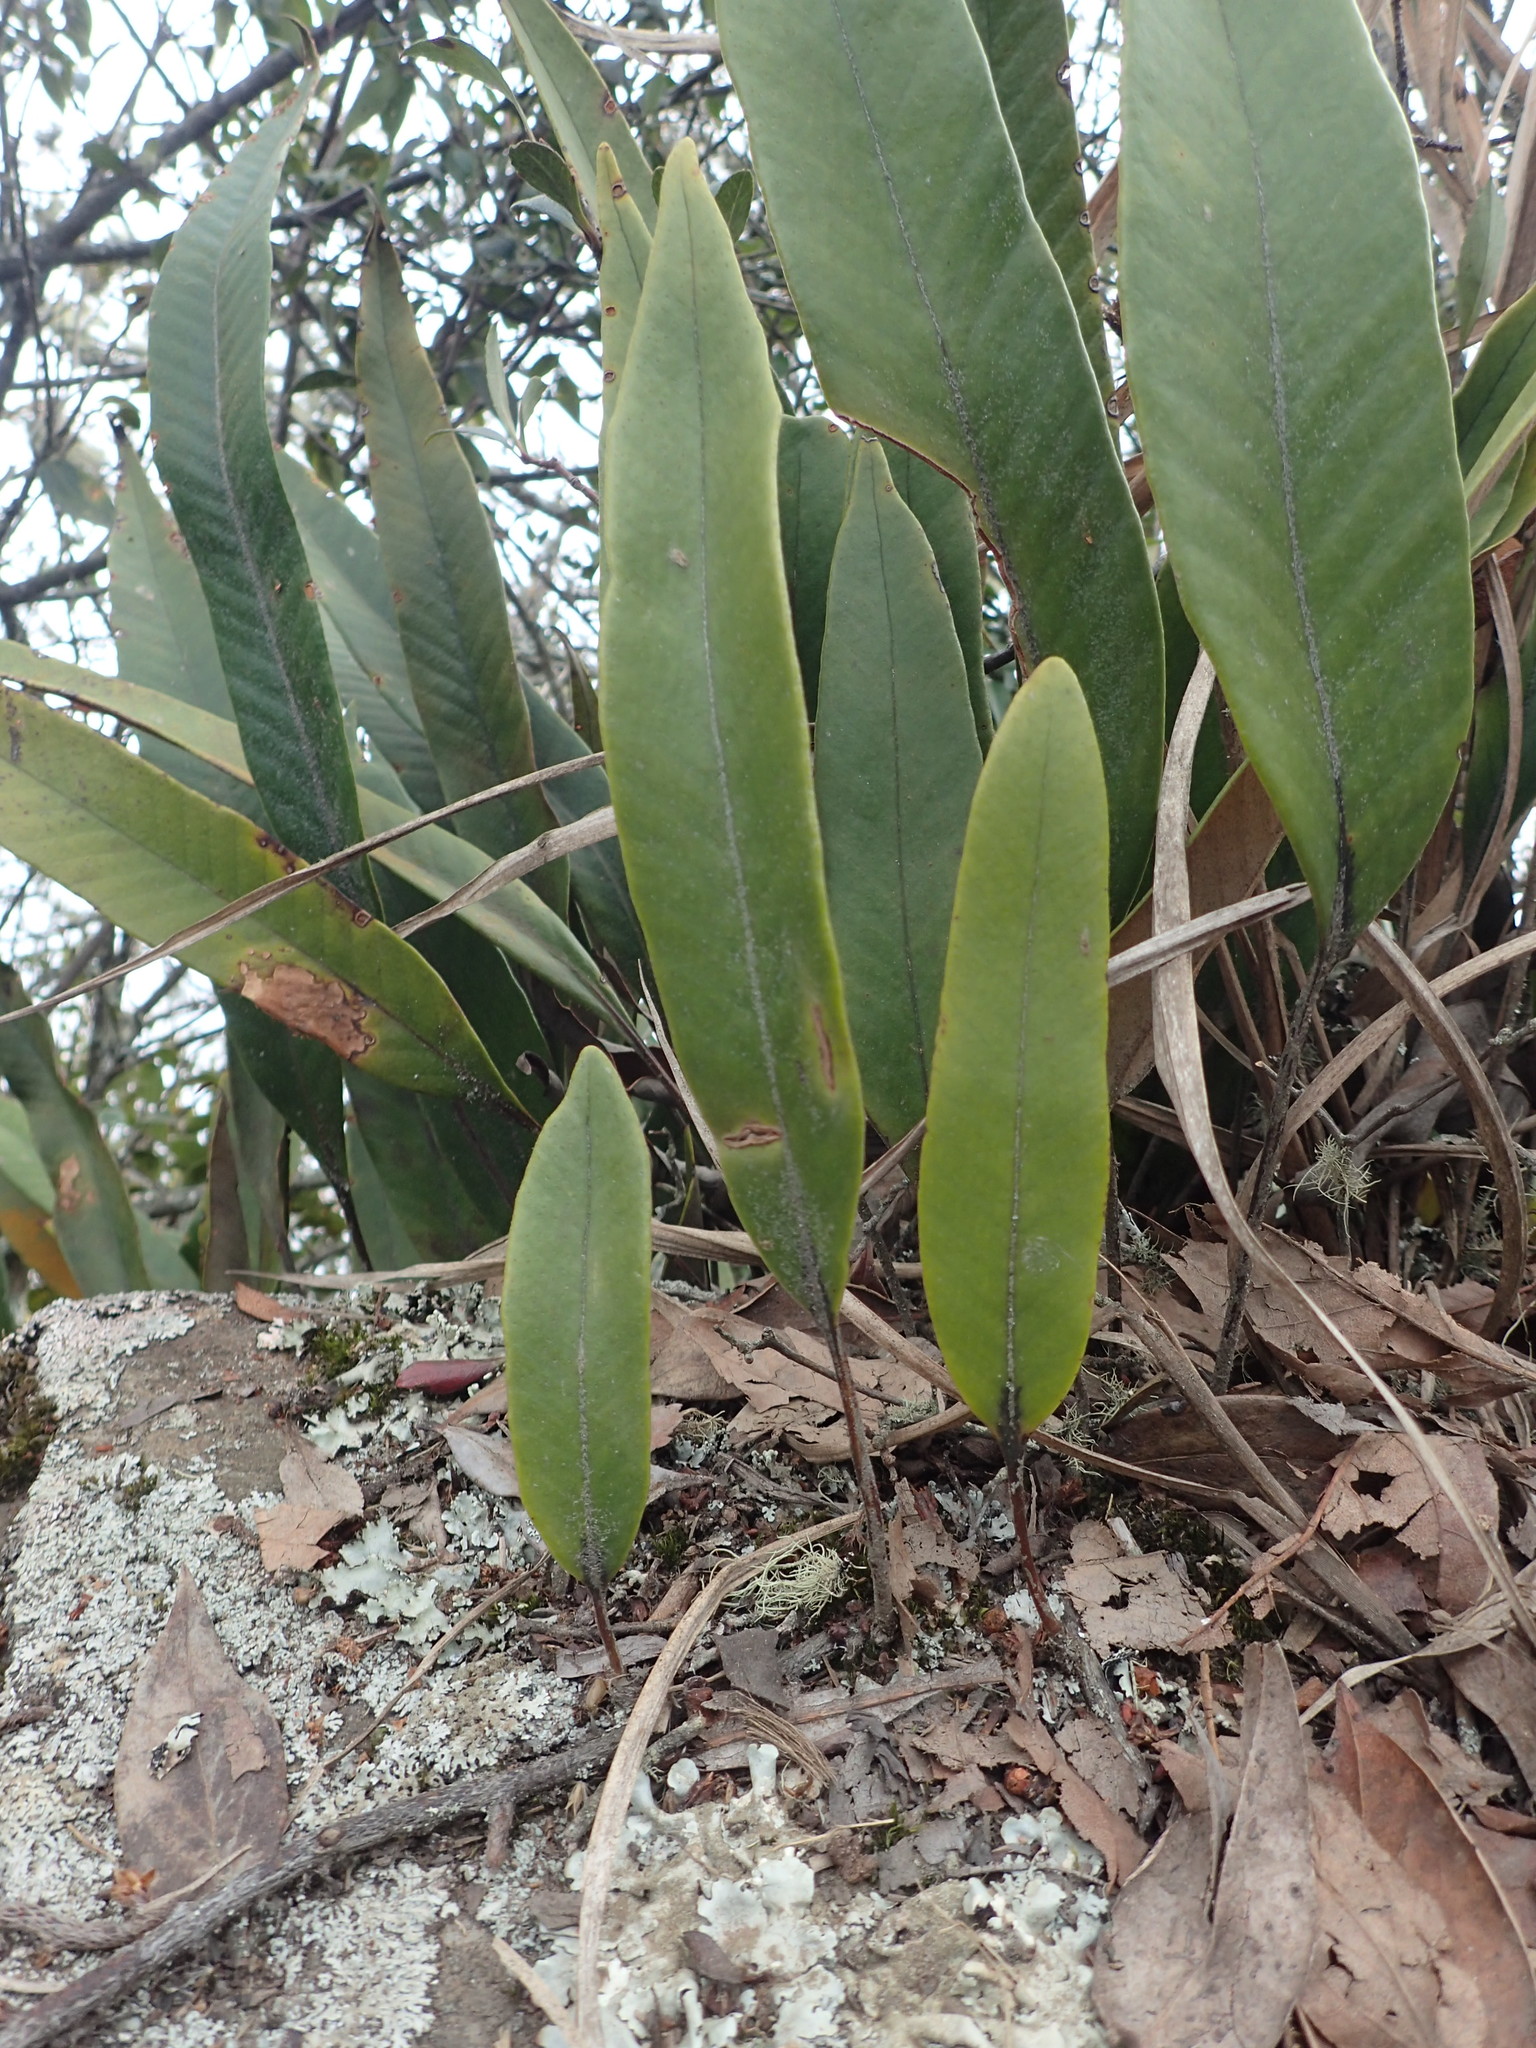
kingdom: Plantae
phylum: Tracheophyta
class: Polypodiopsida
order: Polypodiales
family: Polypodiaceae
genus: Pyrrosia
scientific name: Pyrrosia lingua
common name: Felt fern
